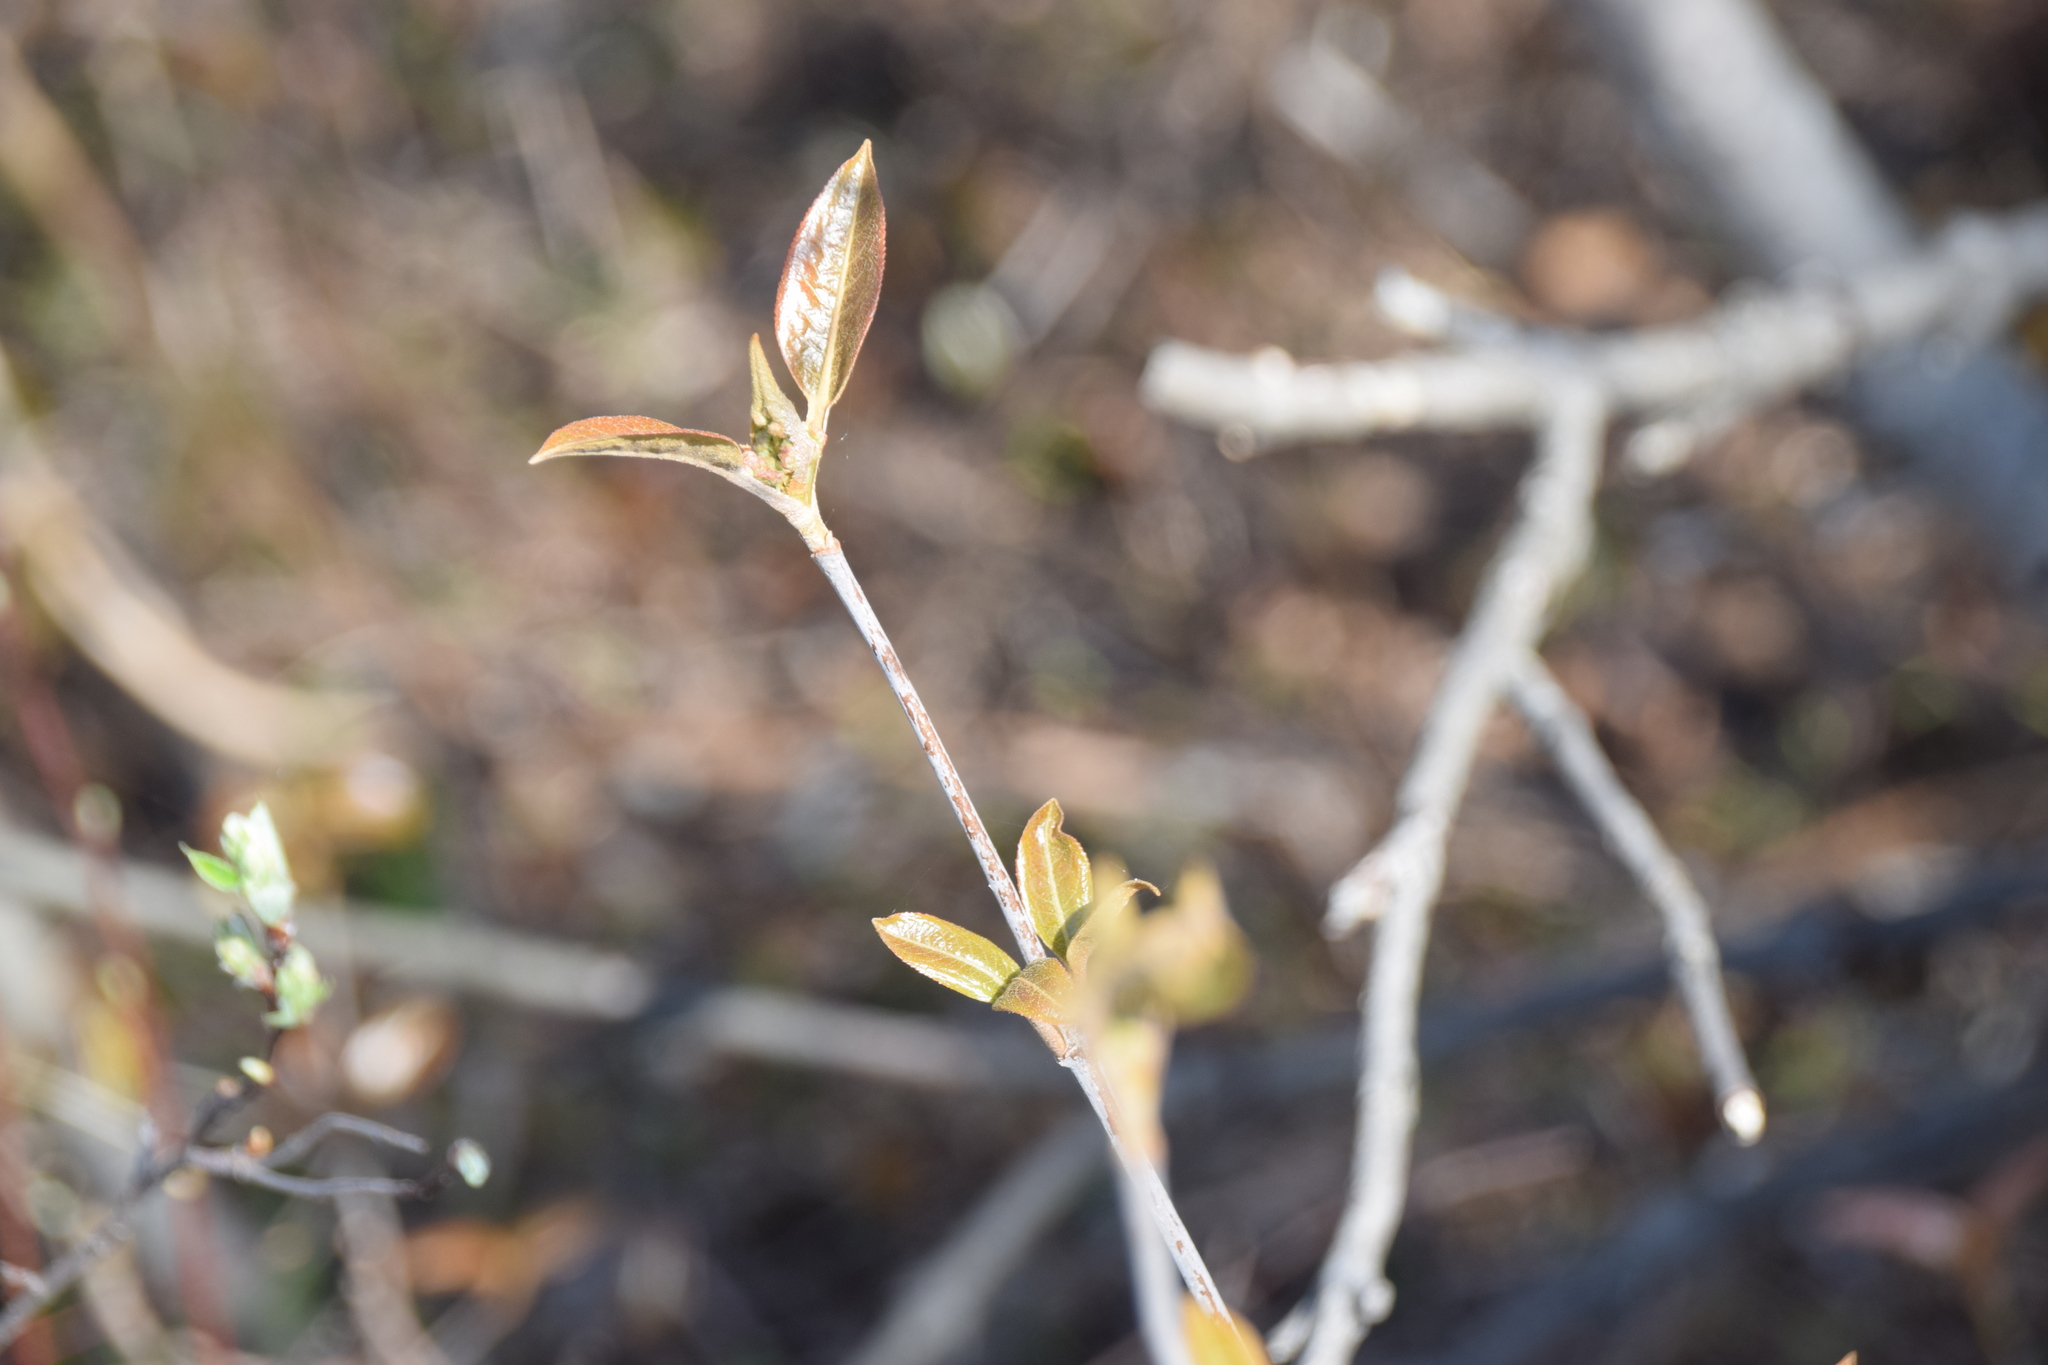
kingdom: Plantae
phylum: Tracheophyta
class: Magnoliopsida
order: Dipsacales
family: Viburnaceae
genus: Viburnum
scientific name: Viburnum cassinoides
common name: Swamp haw
